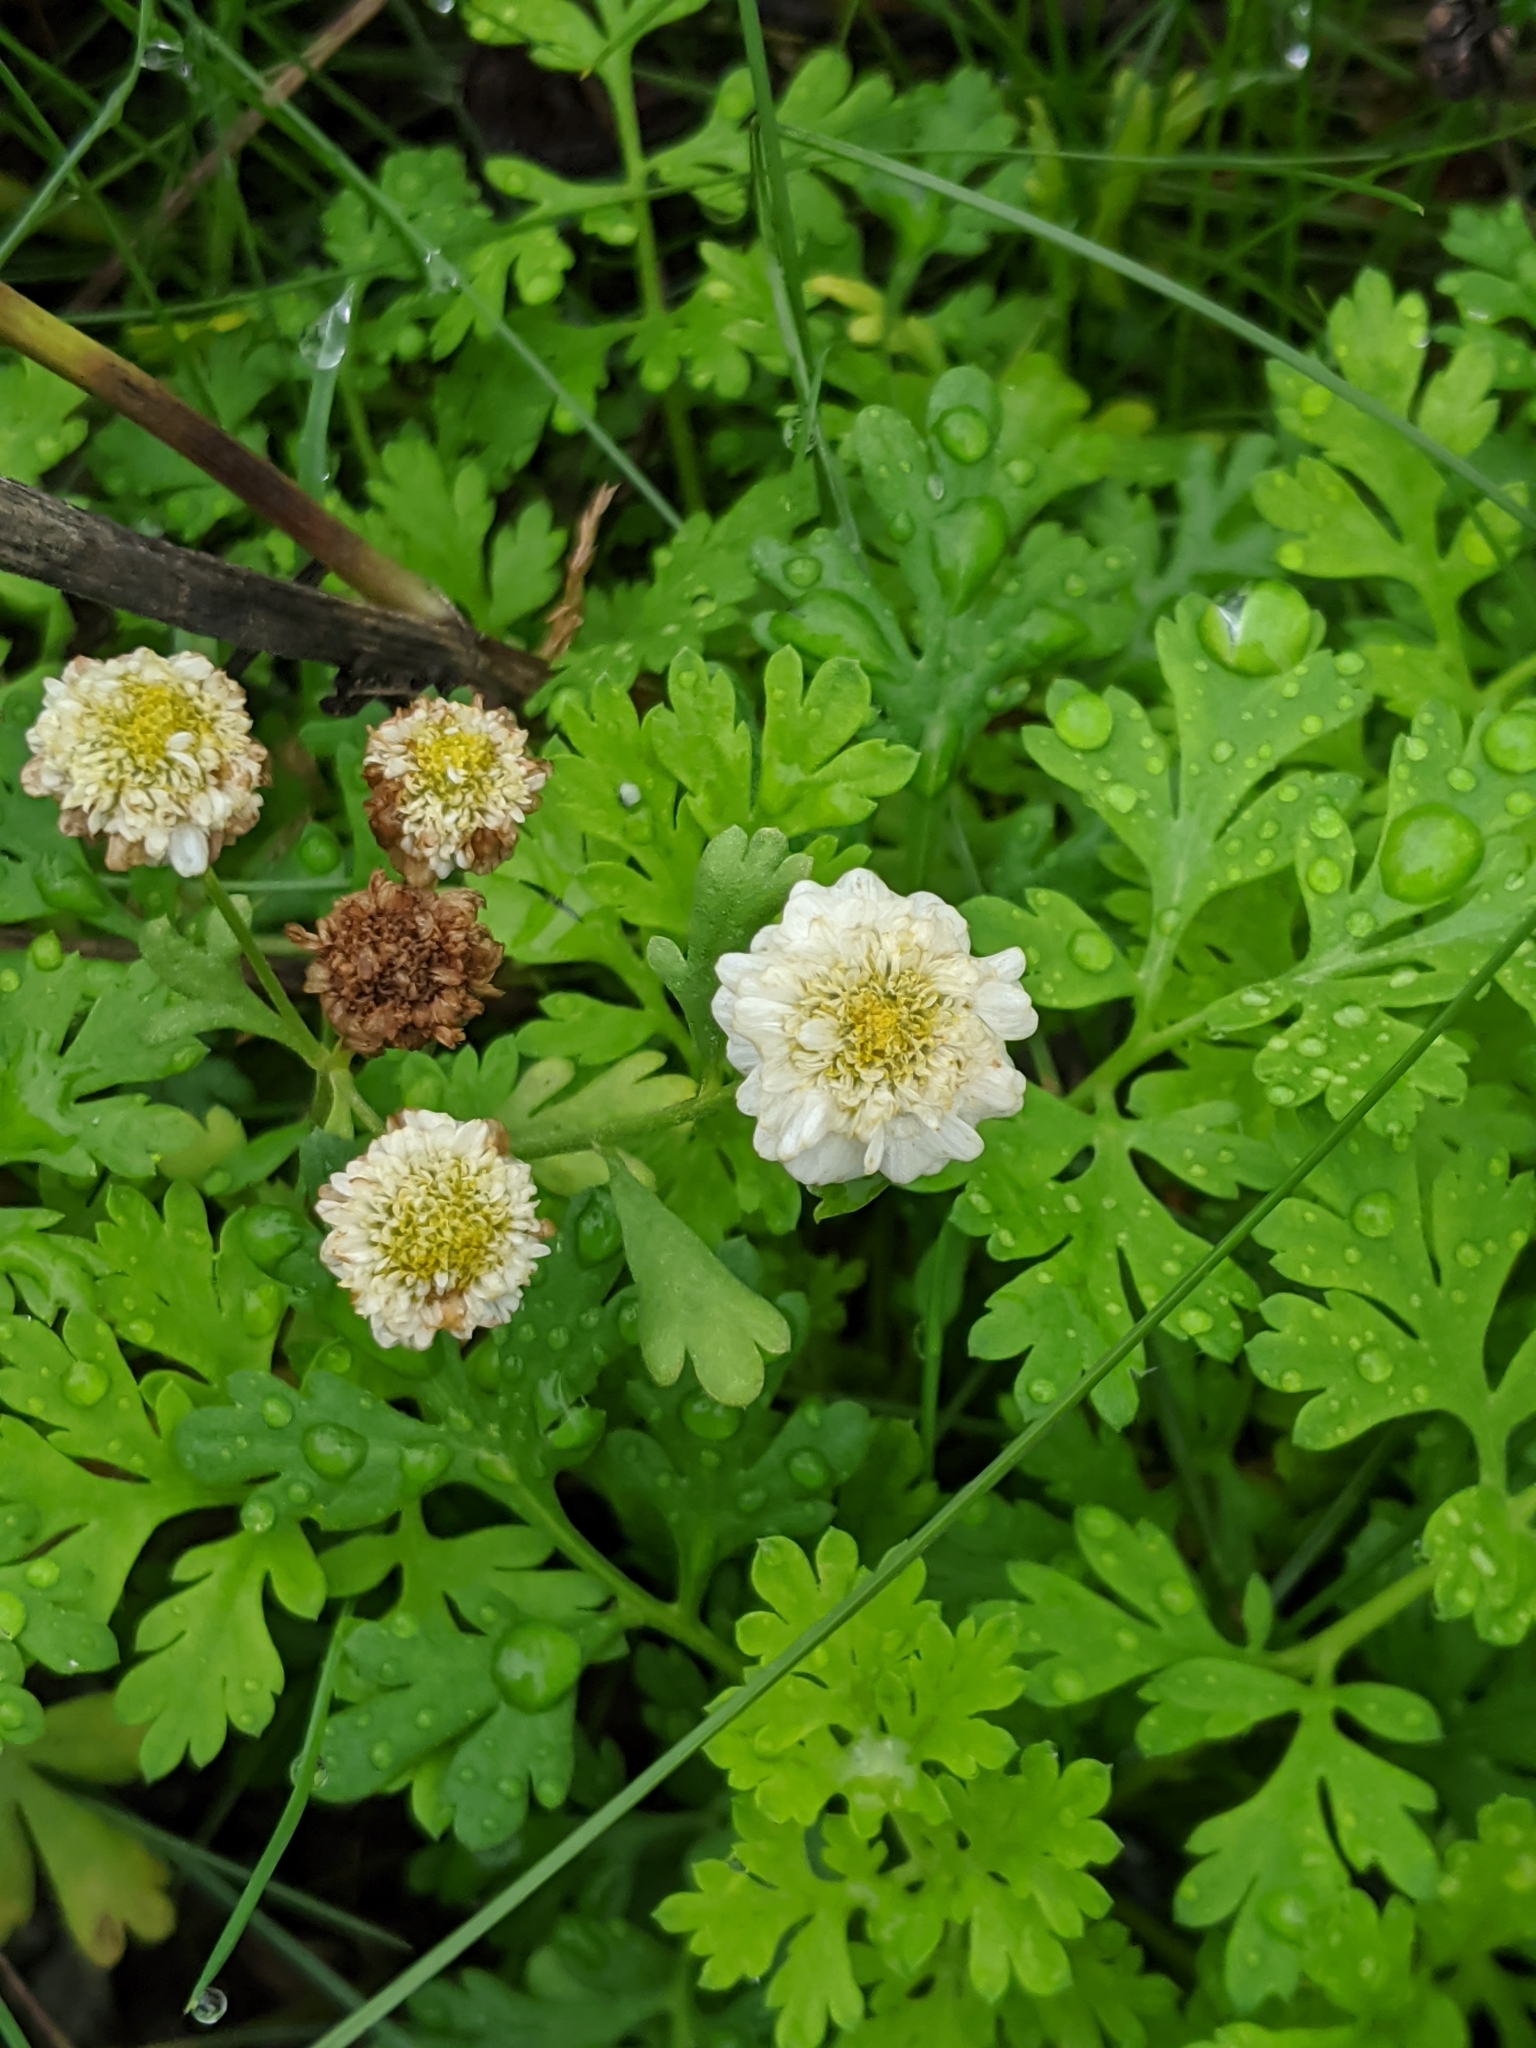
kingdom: Plantae
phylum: Tracheophyta
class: Magnoliopsida
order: Asterales
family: Asteraceae
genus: Tanacetum
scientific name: Tanacetum parthenium
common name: Feverfew
